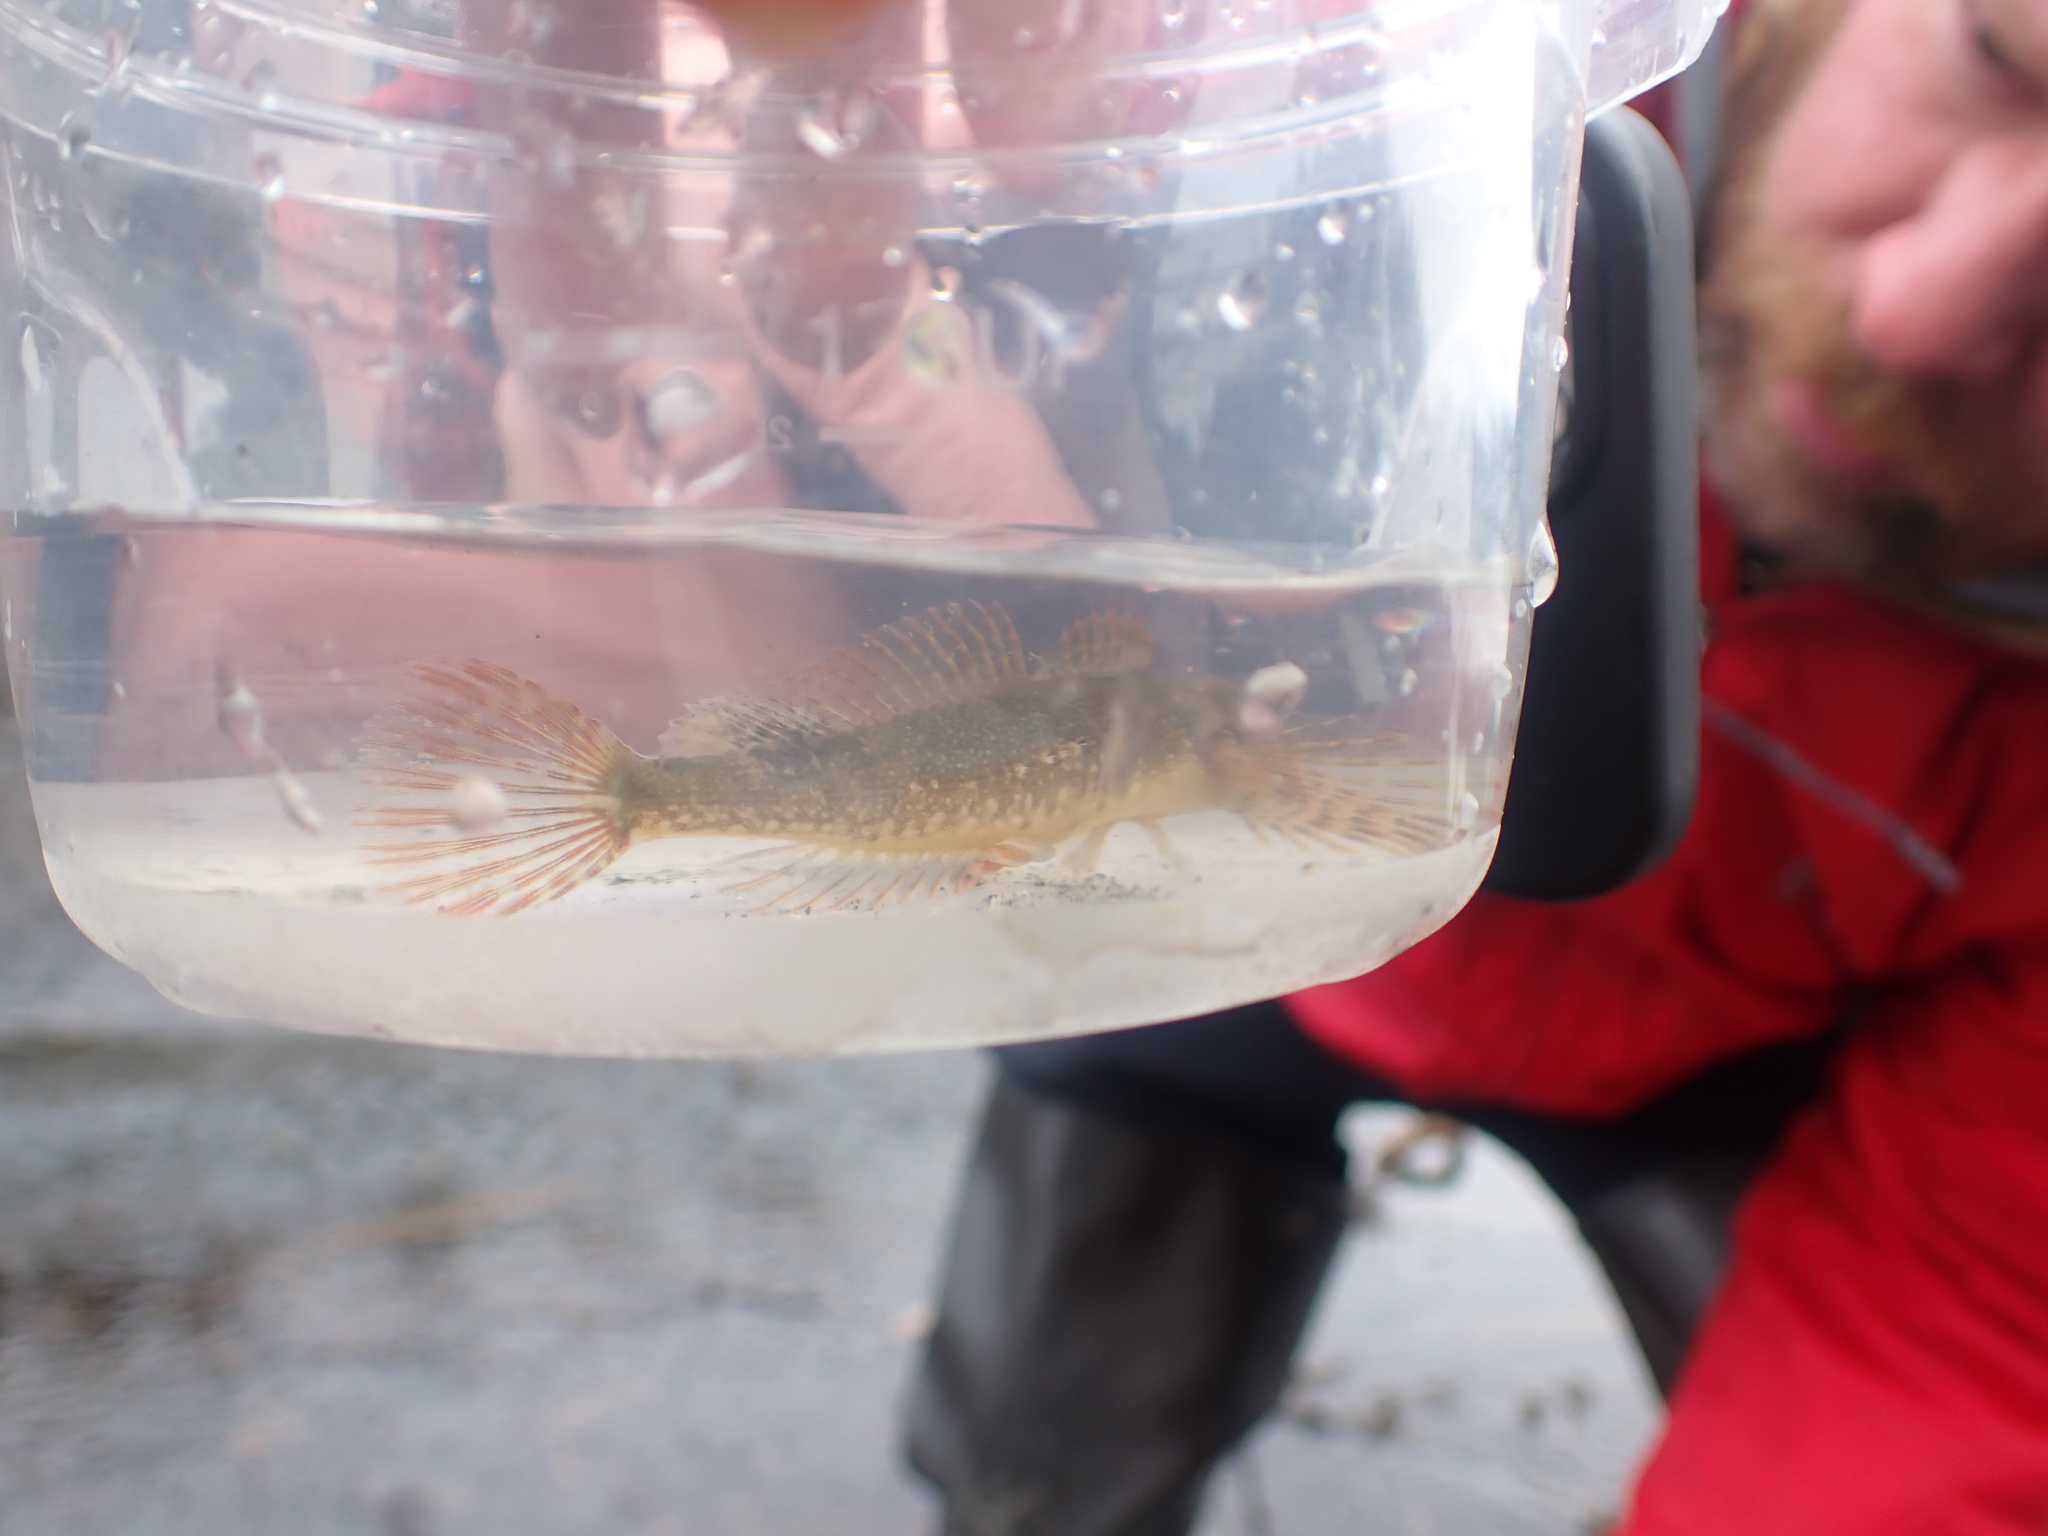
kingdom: Animalia
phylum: Chordata
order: Scorpaeniformes
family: Cottidae
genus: Oligocottus
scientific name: Oligocottus maculosus
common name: Tidepool sculpin
